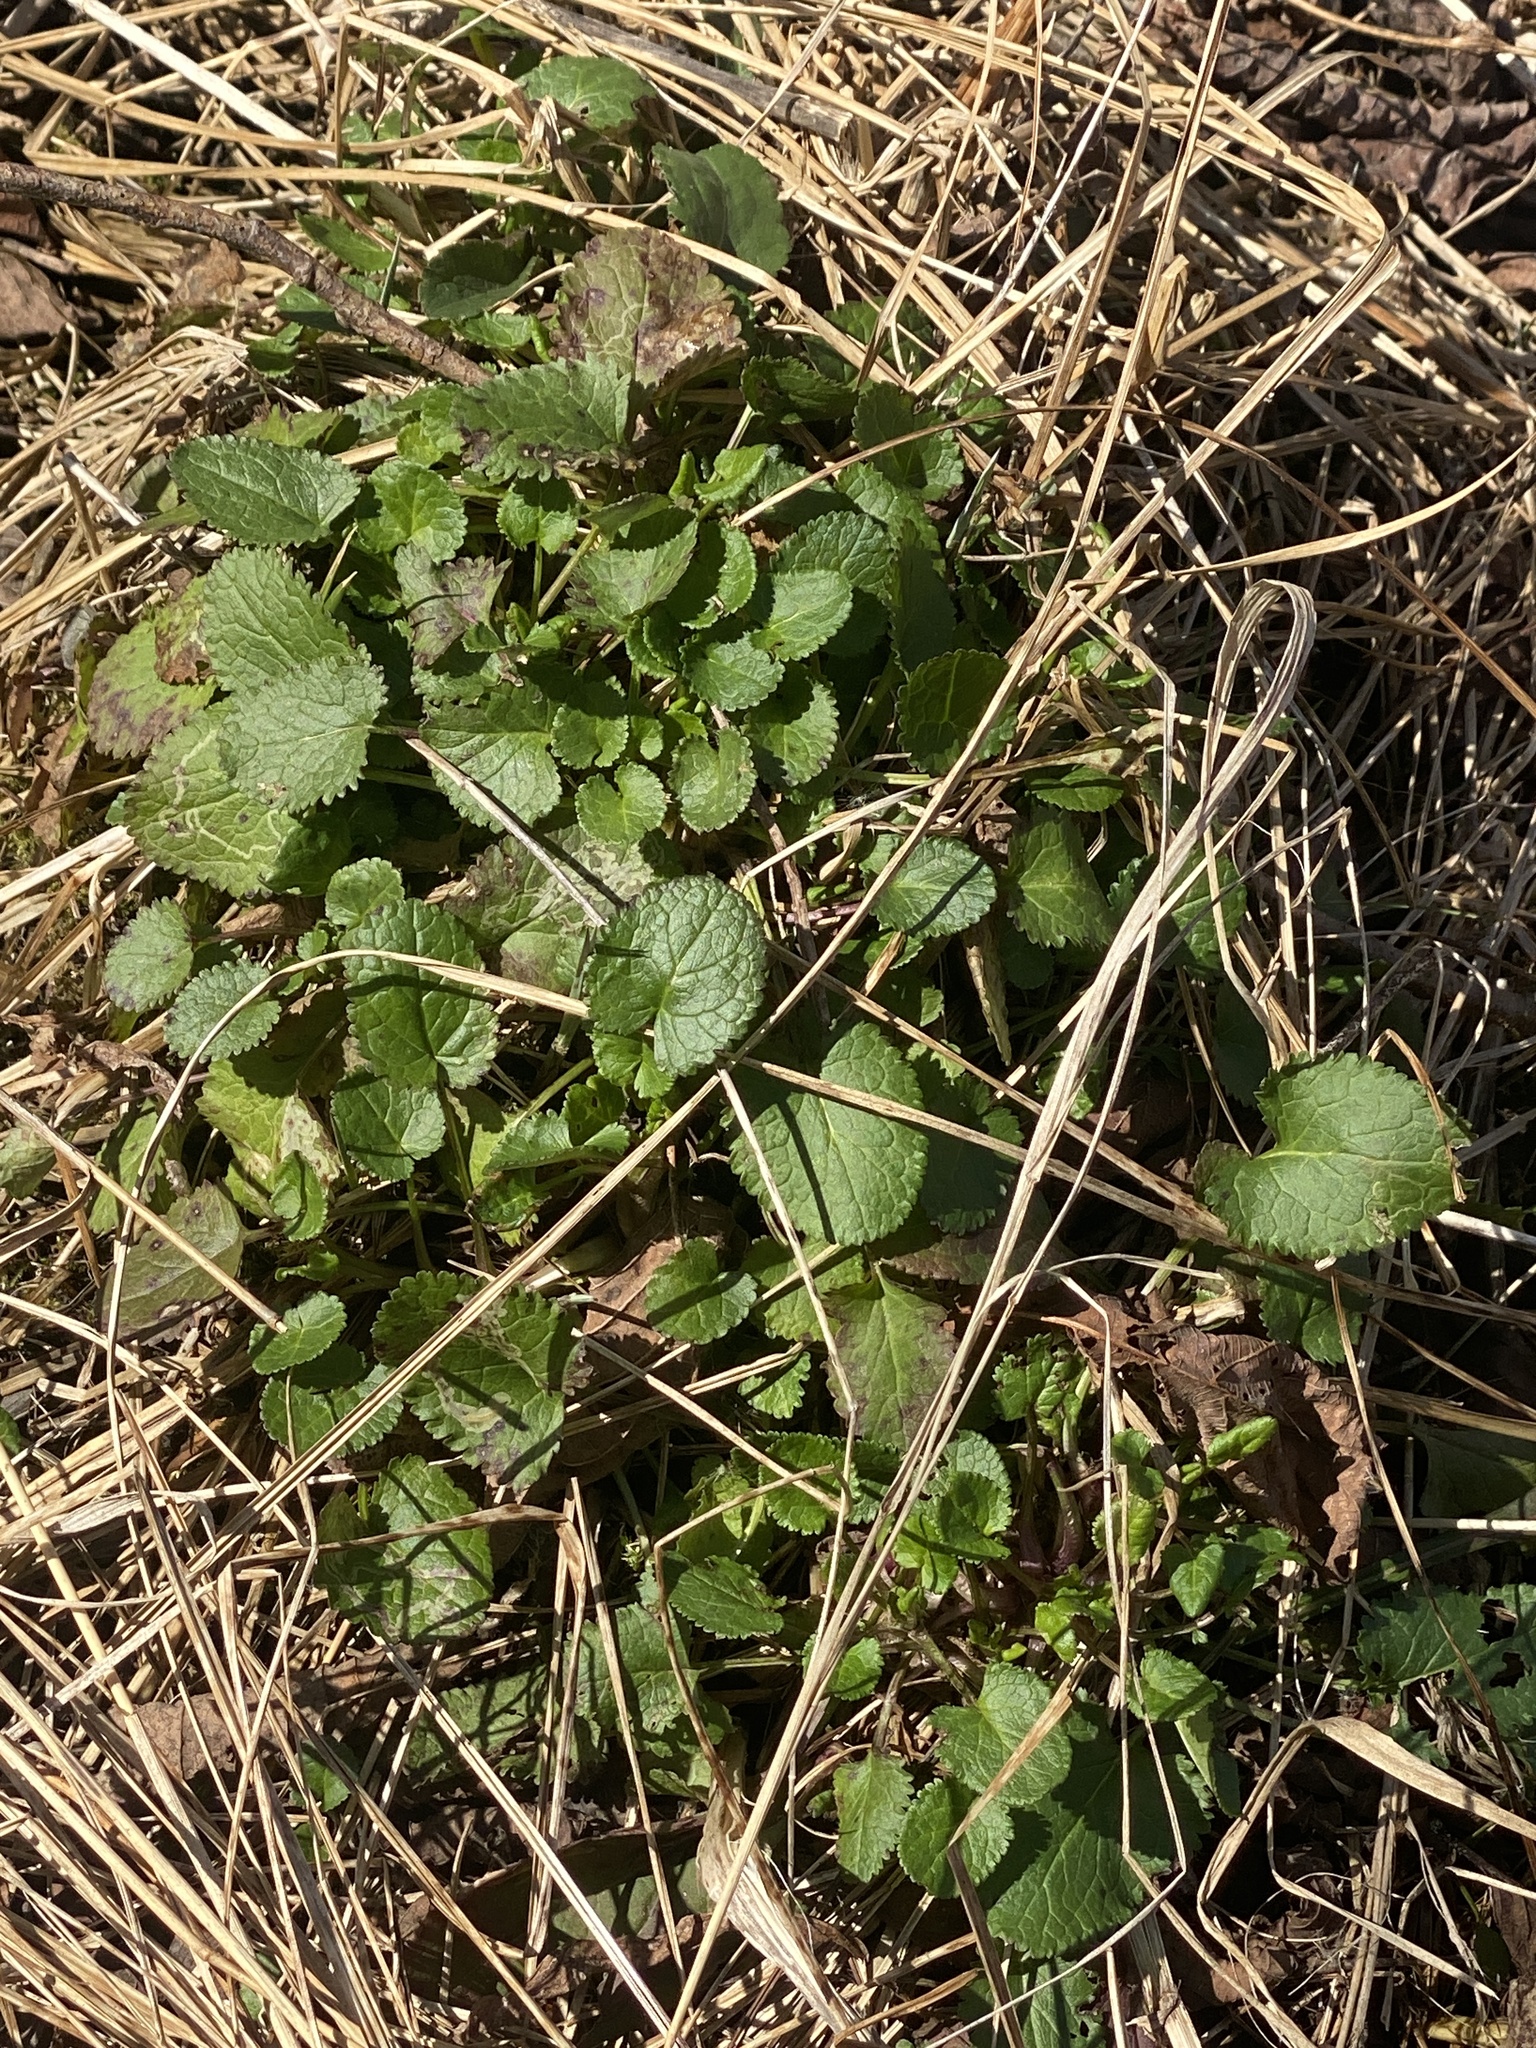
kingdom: Plantae
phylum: Tracheophyta
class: Magnoliopsida
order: Asterales
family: Asteraceae
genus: Packera
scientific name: Packera aurea
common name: Golden groundsel
